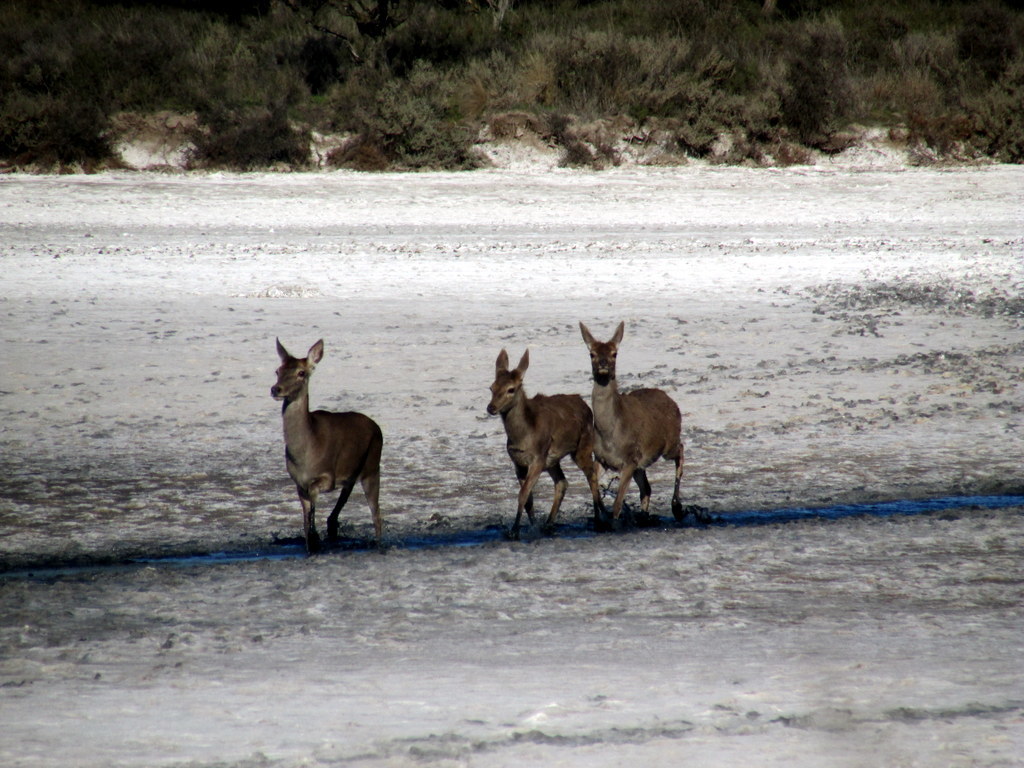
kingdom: Animalia
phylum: Chordata
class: Mammalia
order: Artiodactyla
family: Cervidae
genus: Cervus
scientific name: Cervus elaphus
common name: Red deer
